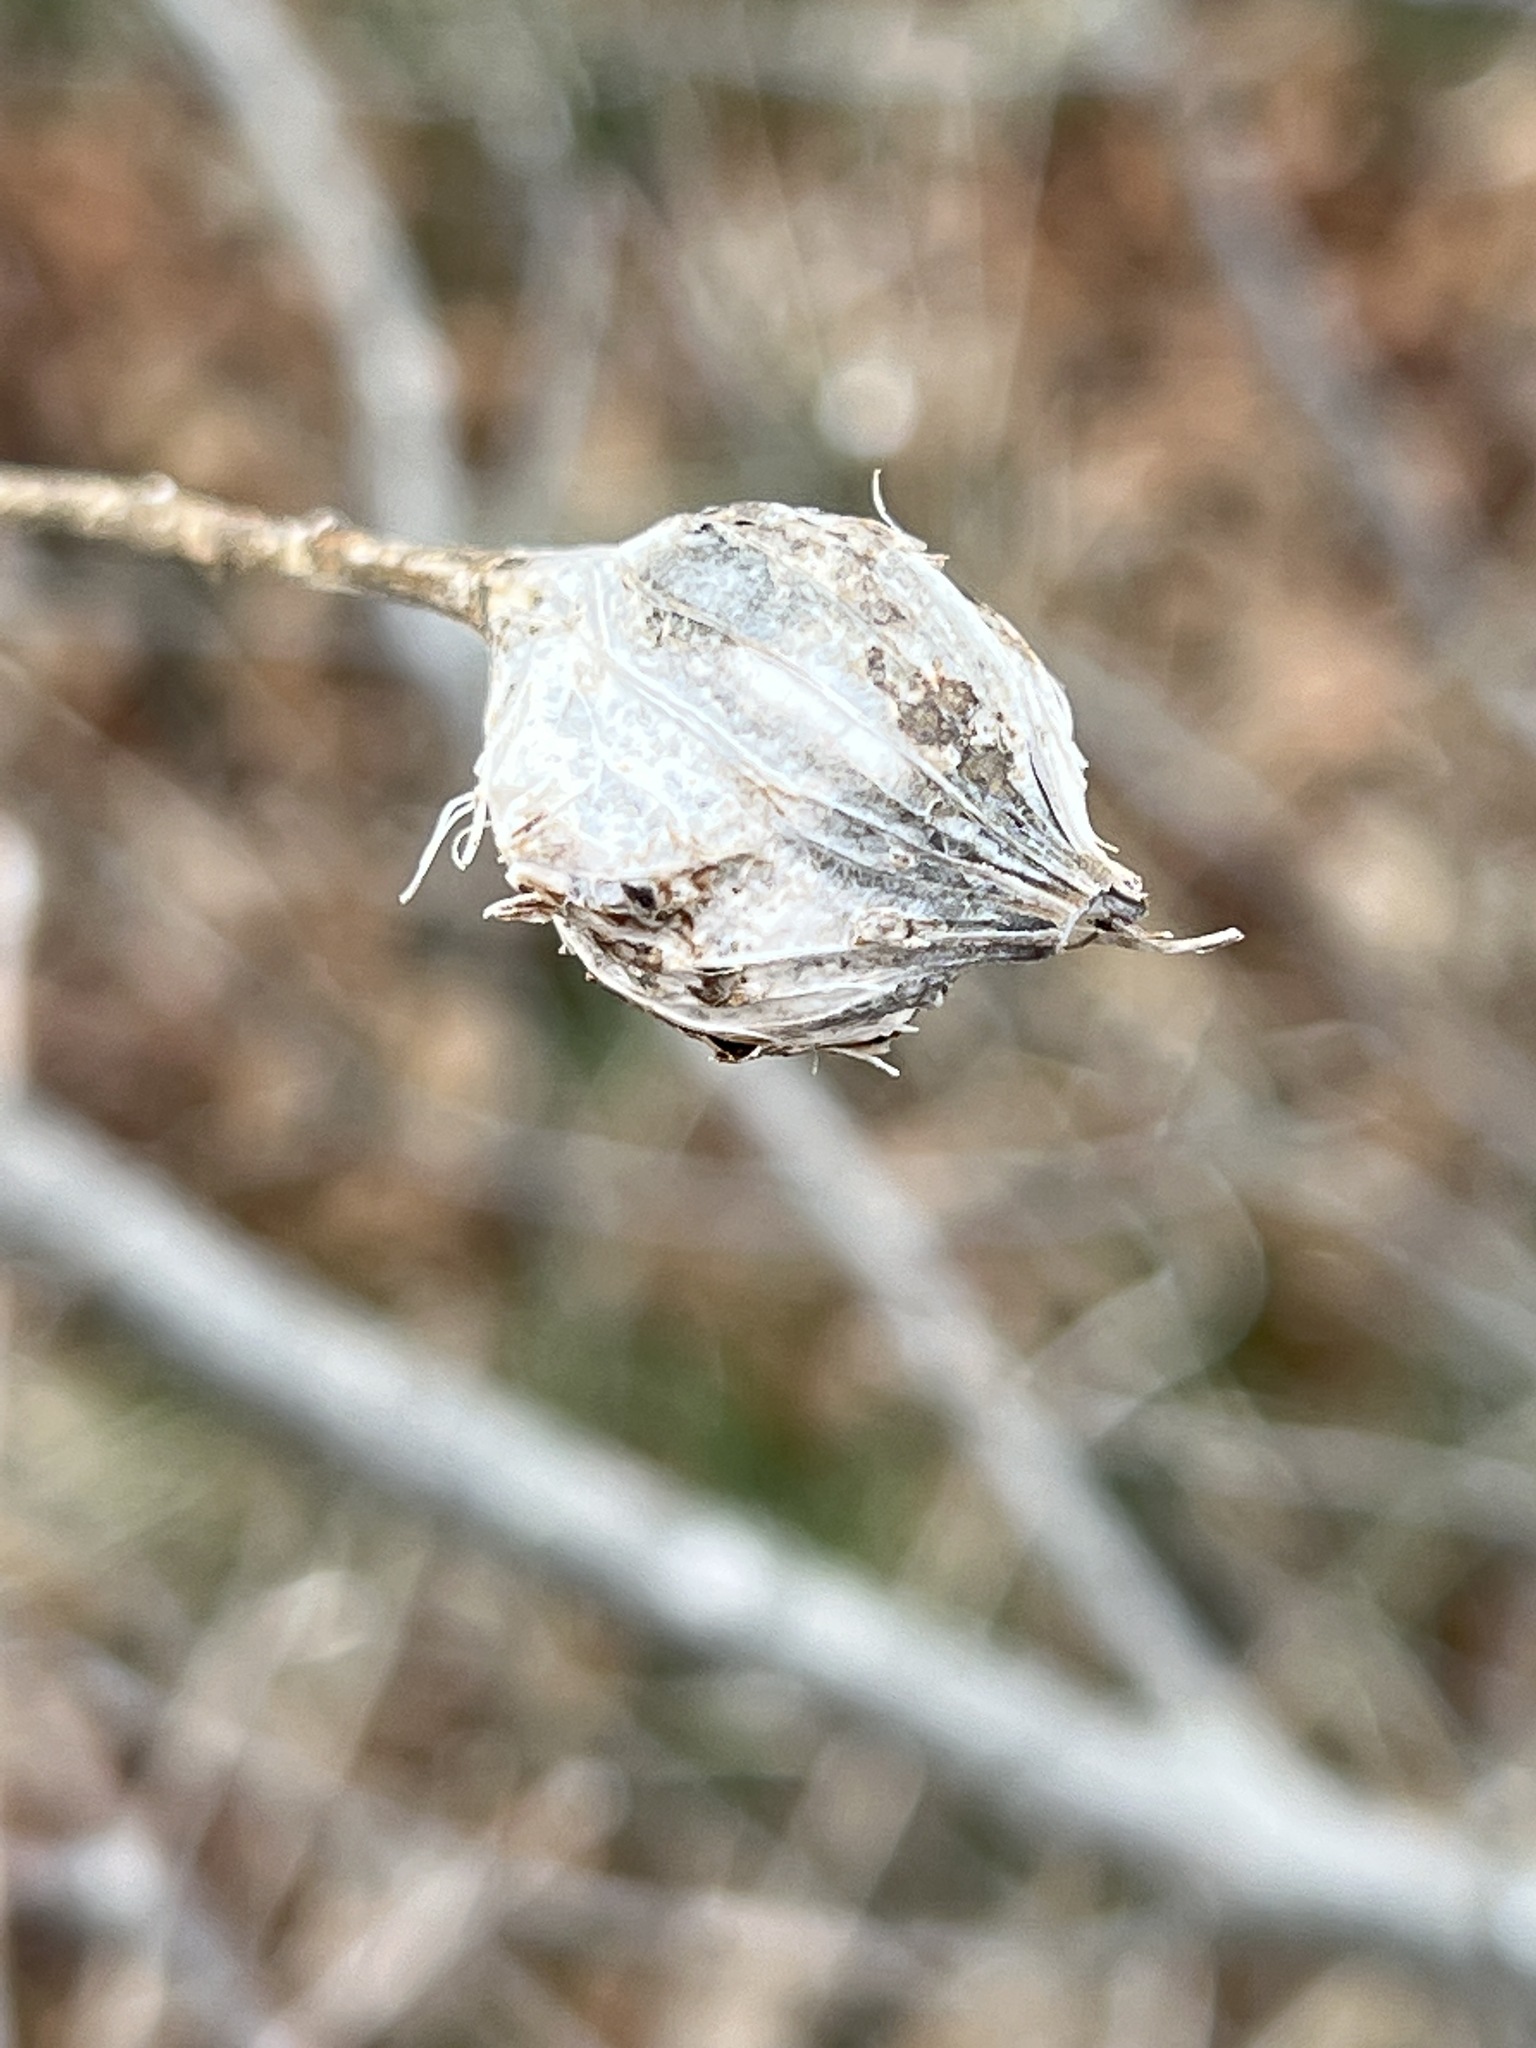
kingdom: Animalia
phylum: Arthropoda
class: Insecta
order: Diptera
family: Tephritidae
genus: Eurosta
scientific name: Eurosta solidaginis
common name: Goldenrod gall fly
